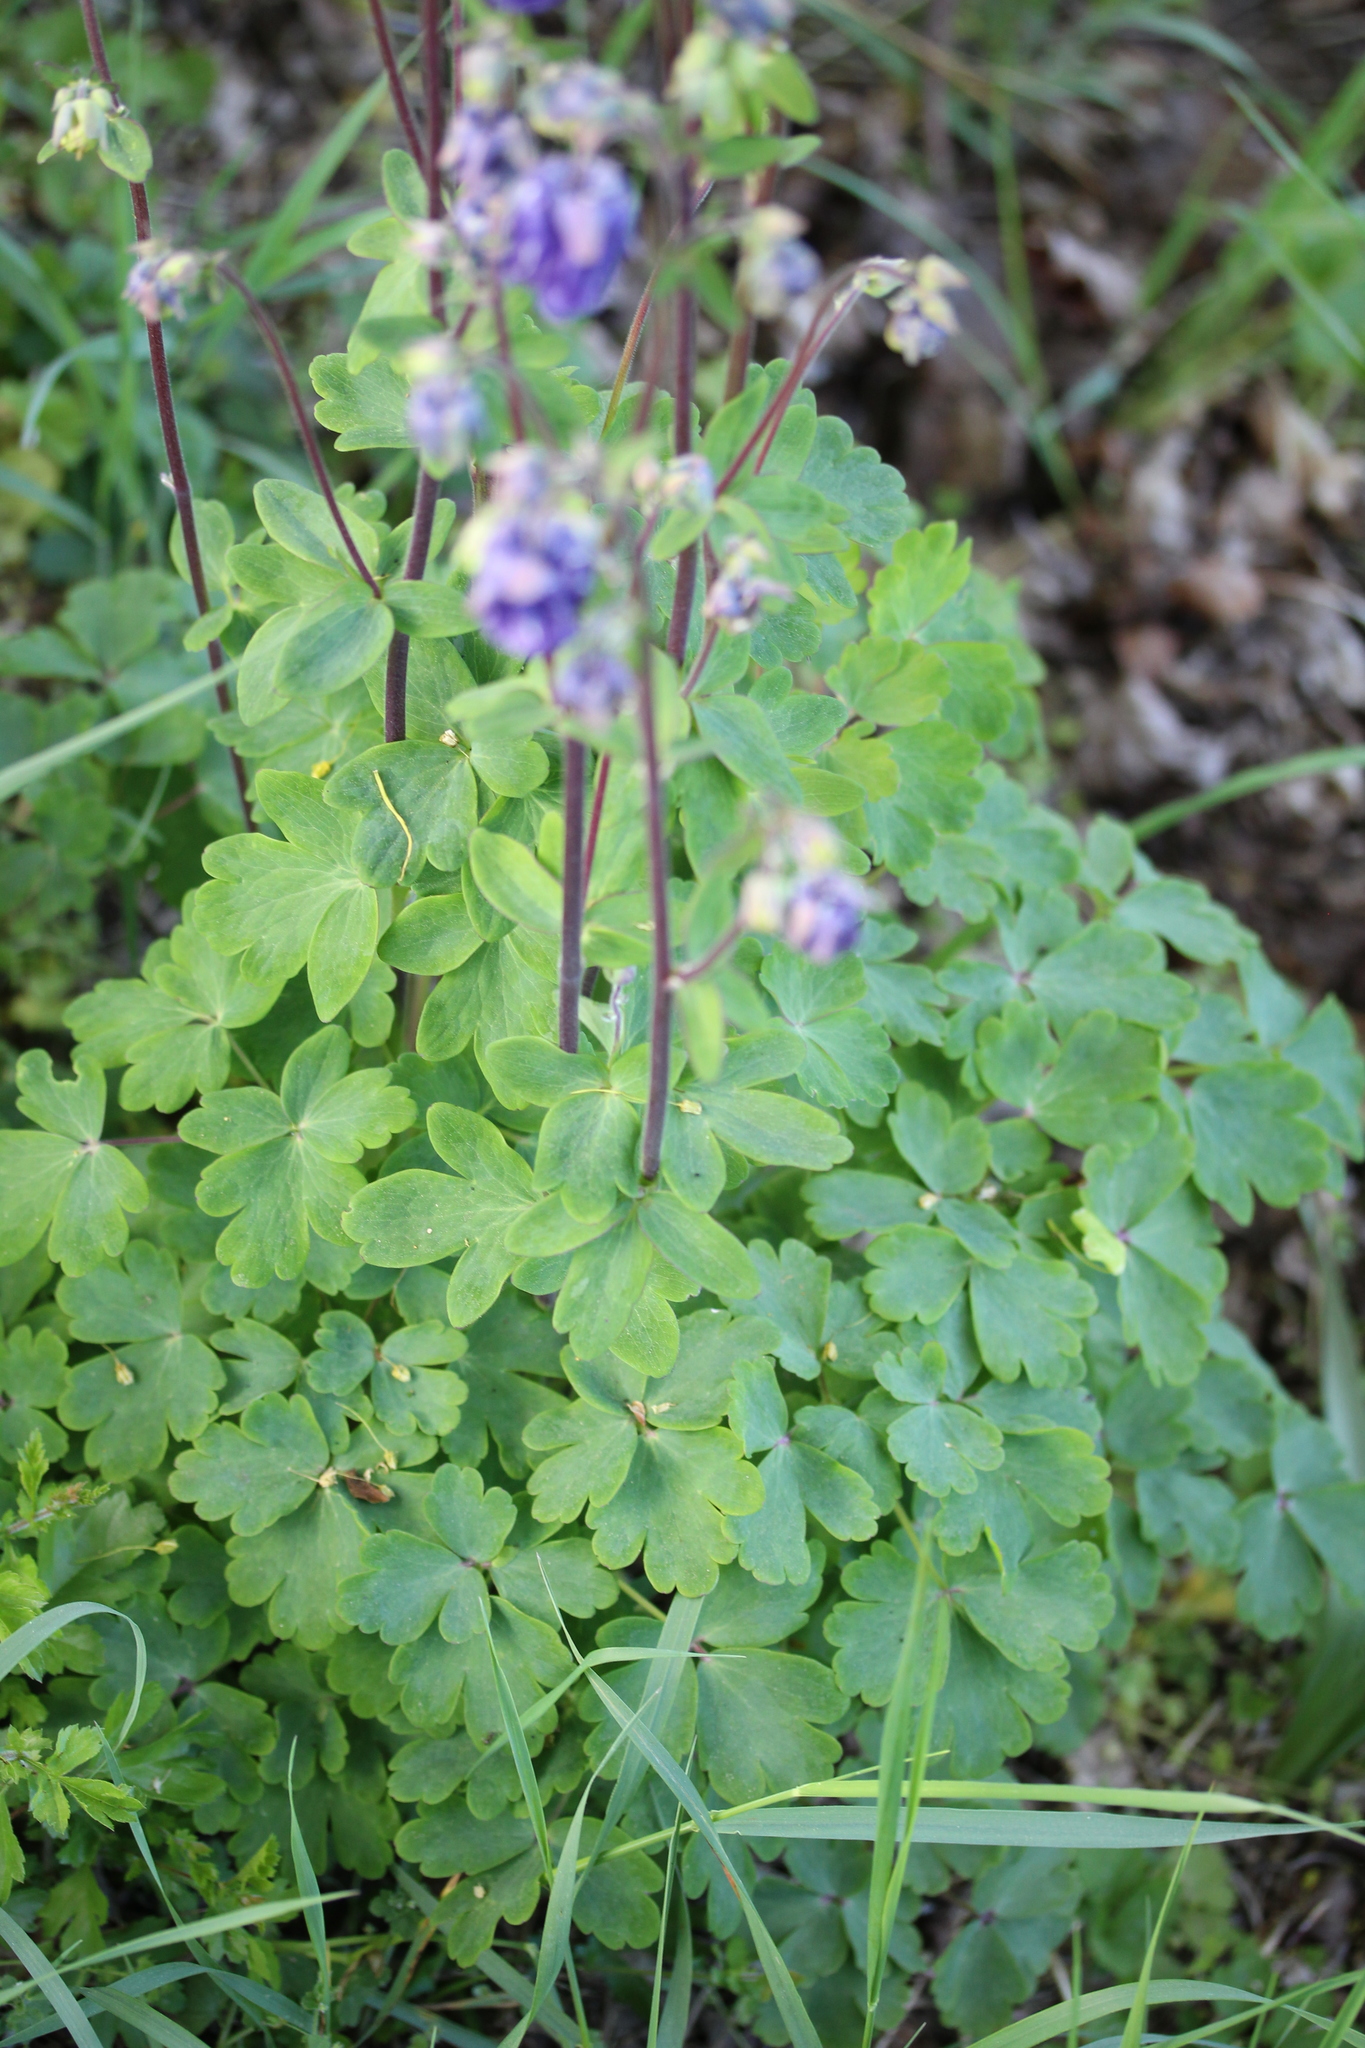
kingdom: Plantae
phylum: Tracheophyta
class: Magnoliopsida
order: Ranunculales
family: Ranunculaceae
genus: Aquilegia
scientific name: Aquilegia vulgaris
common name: Columbine
